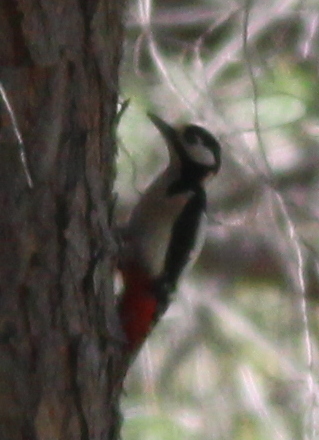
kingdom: Animalia
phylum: Chordata
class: Aves
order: Piciformes
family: Picidae
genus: Dendrocopos
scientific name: Dendrocopos major
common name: Great spotted woodpecker
